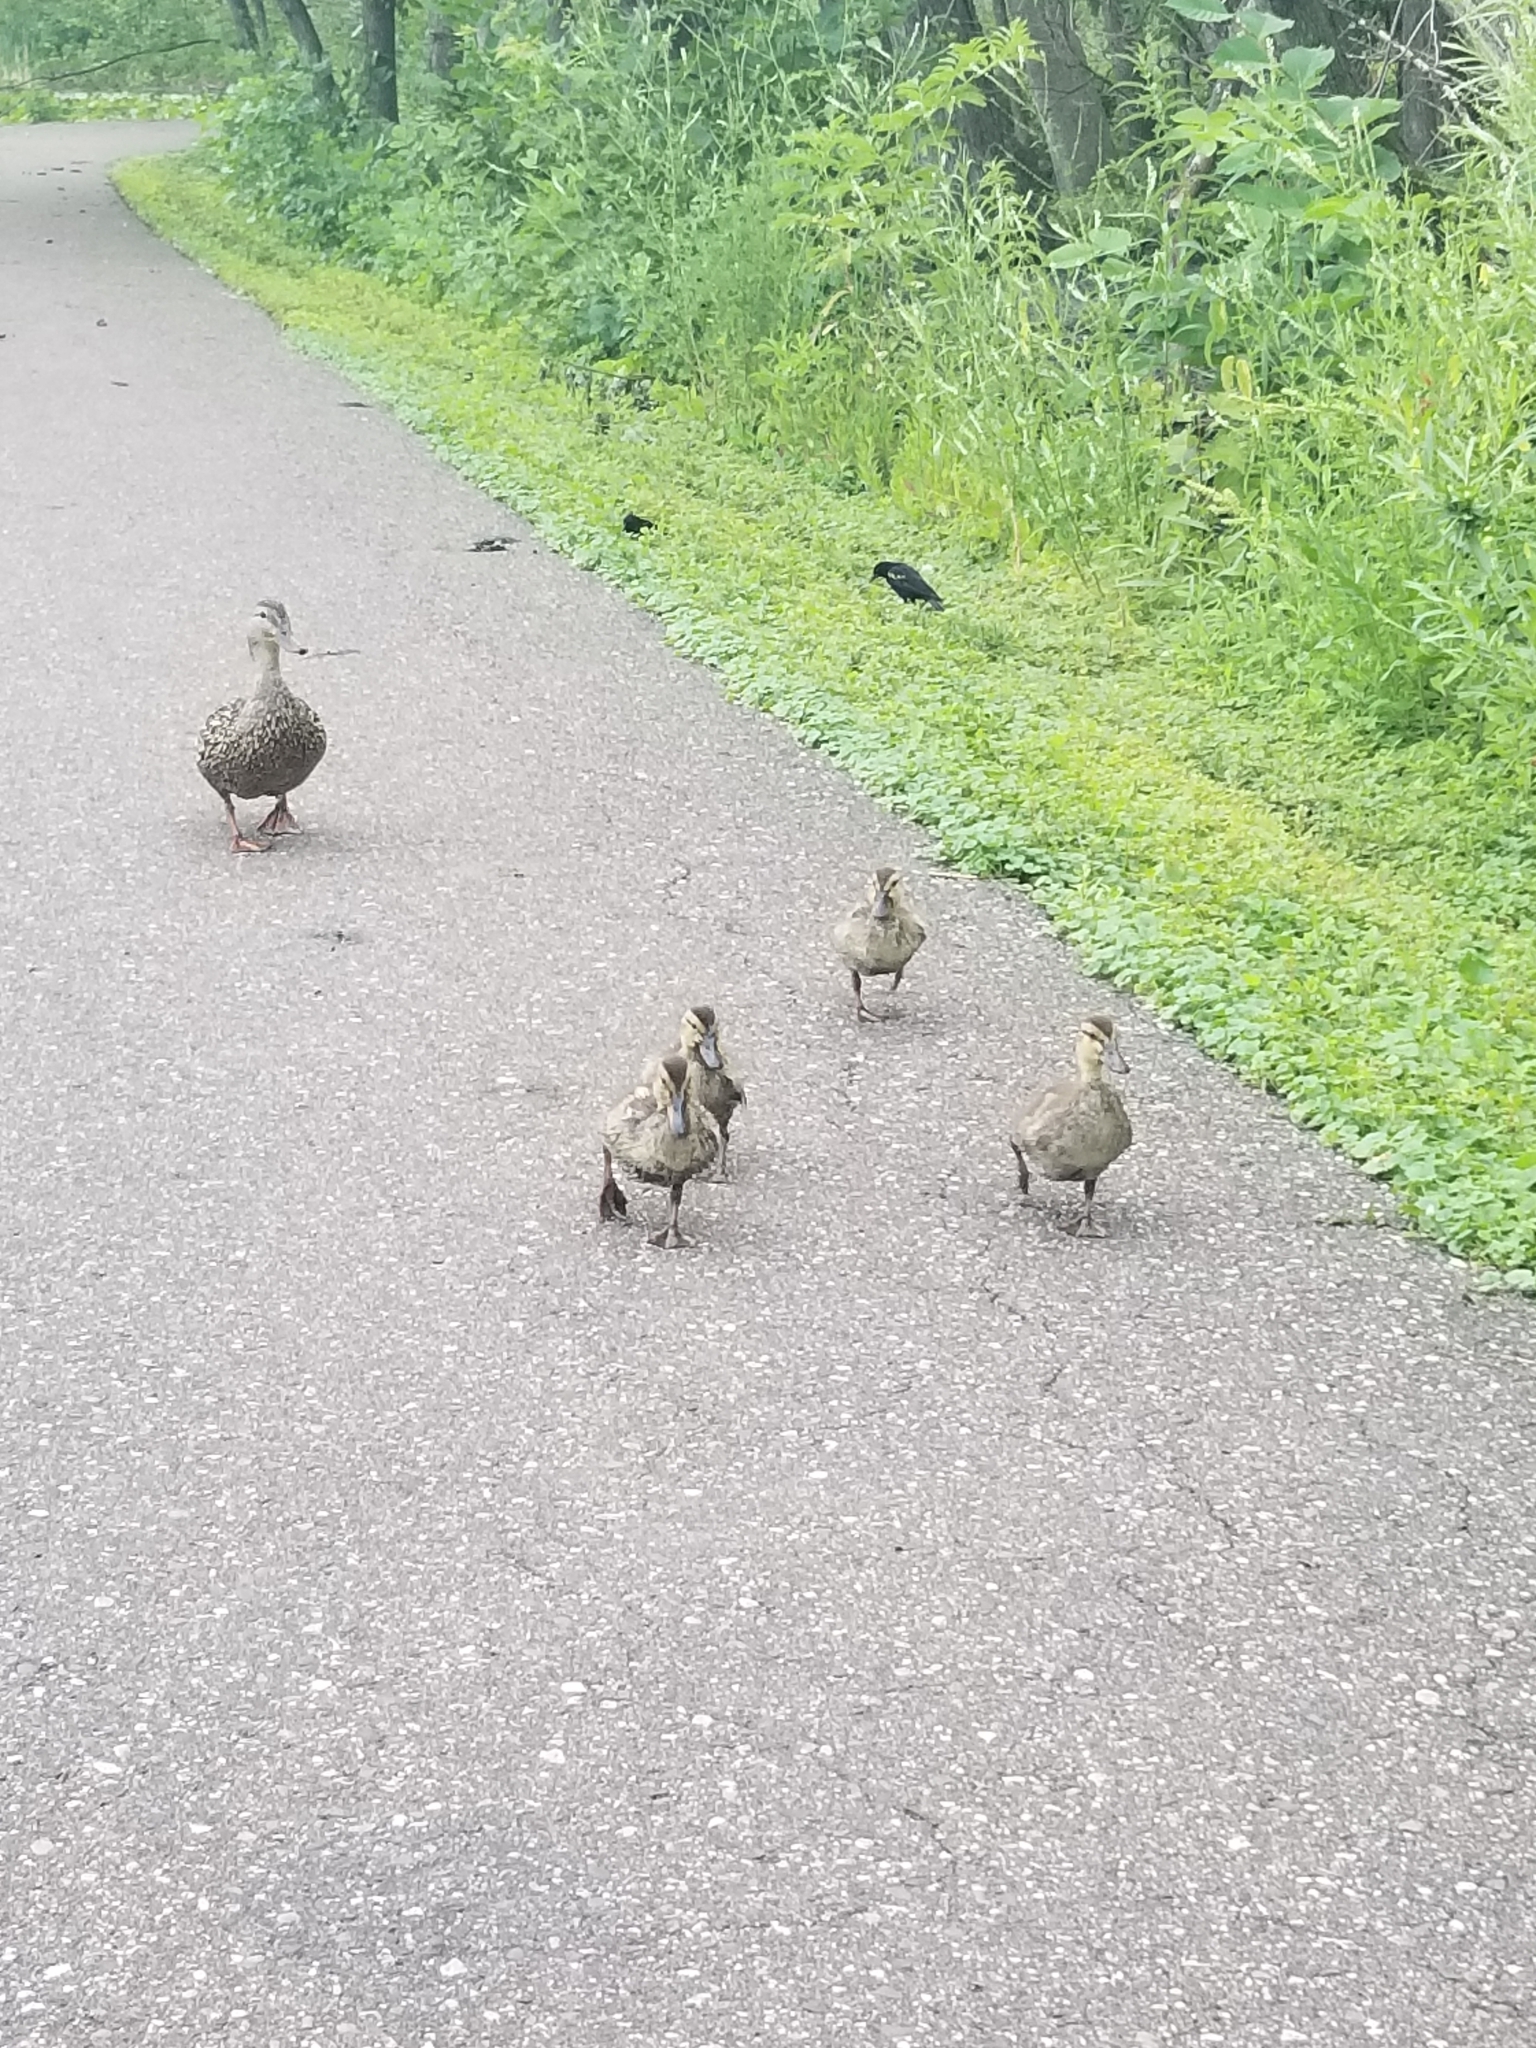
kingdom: Animalia
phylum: Chordata
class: Aves
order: Anseriformes
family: Anatidae
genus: Anas
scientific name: Anas platyrhynchos
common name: Mallard
